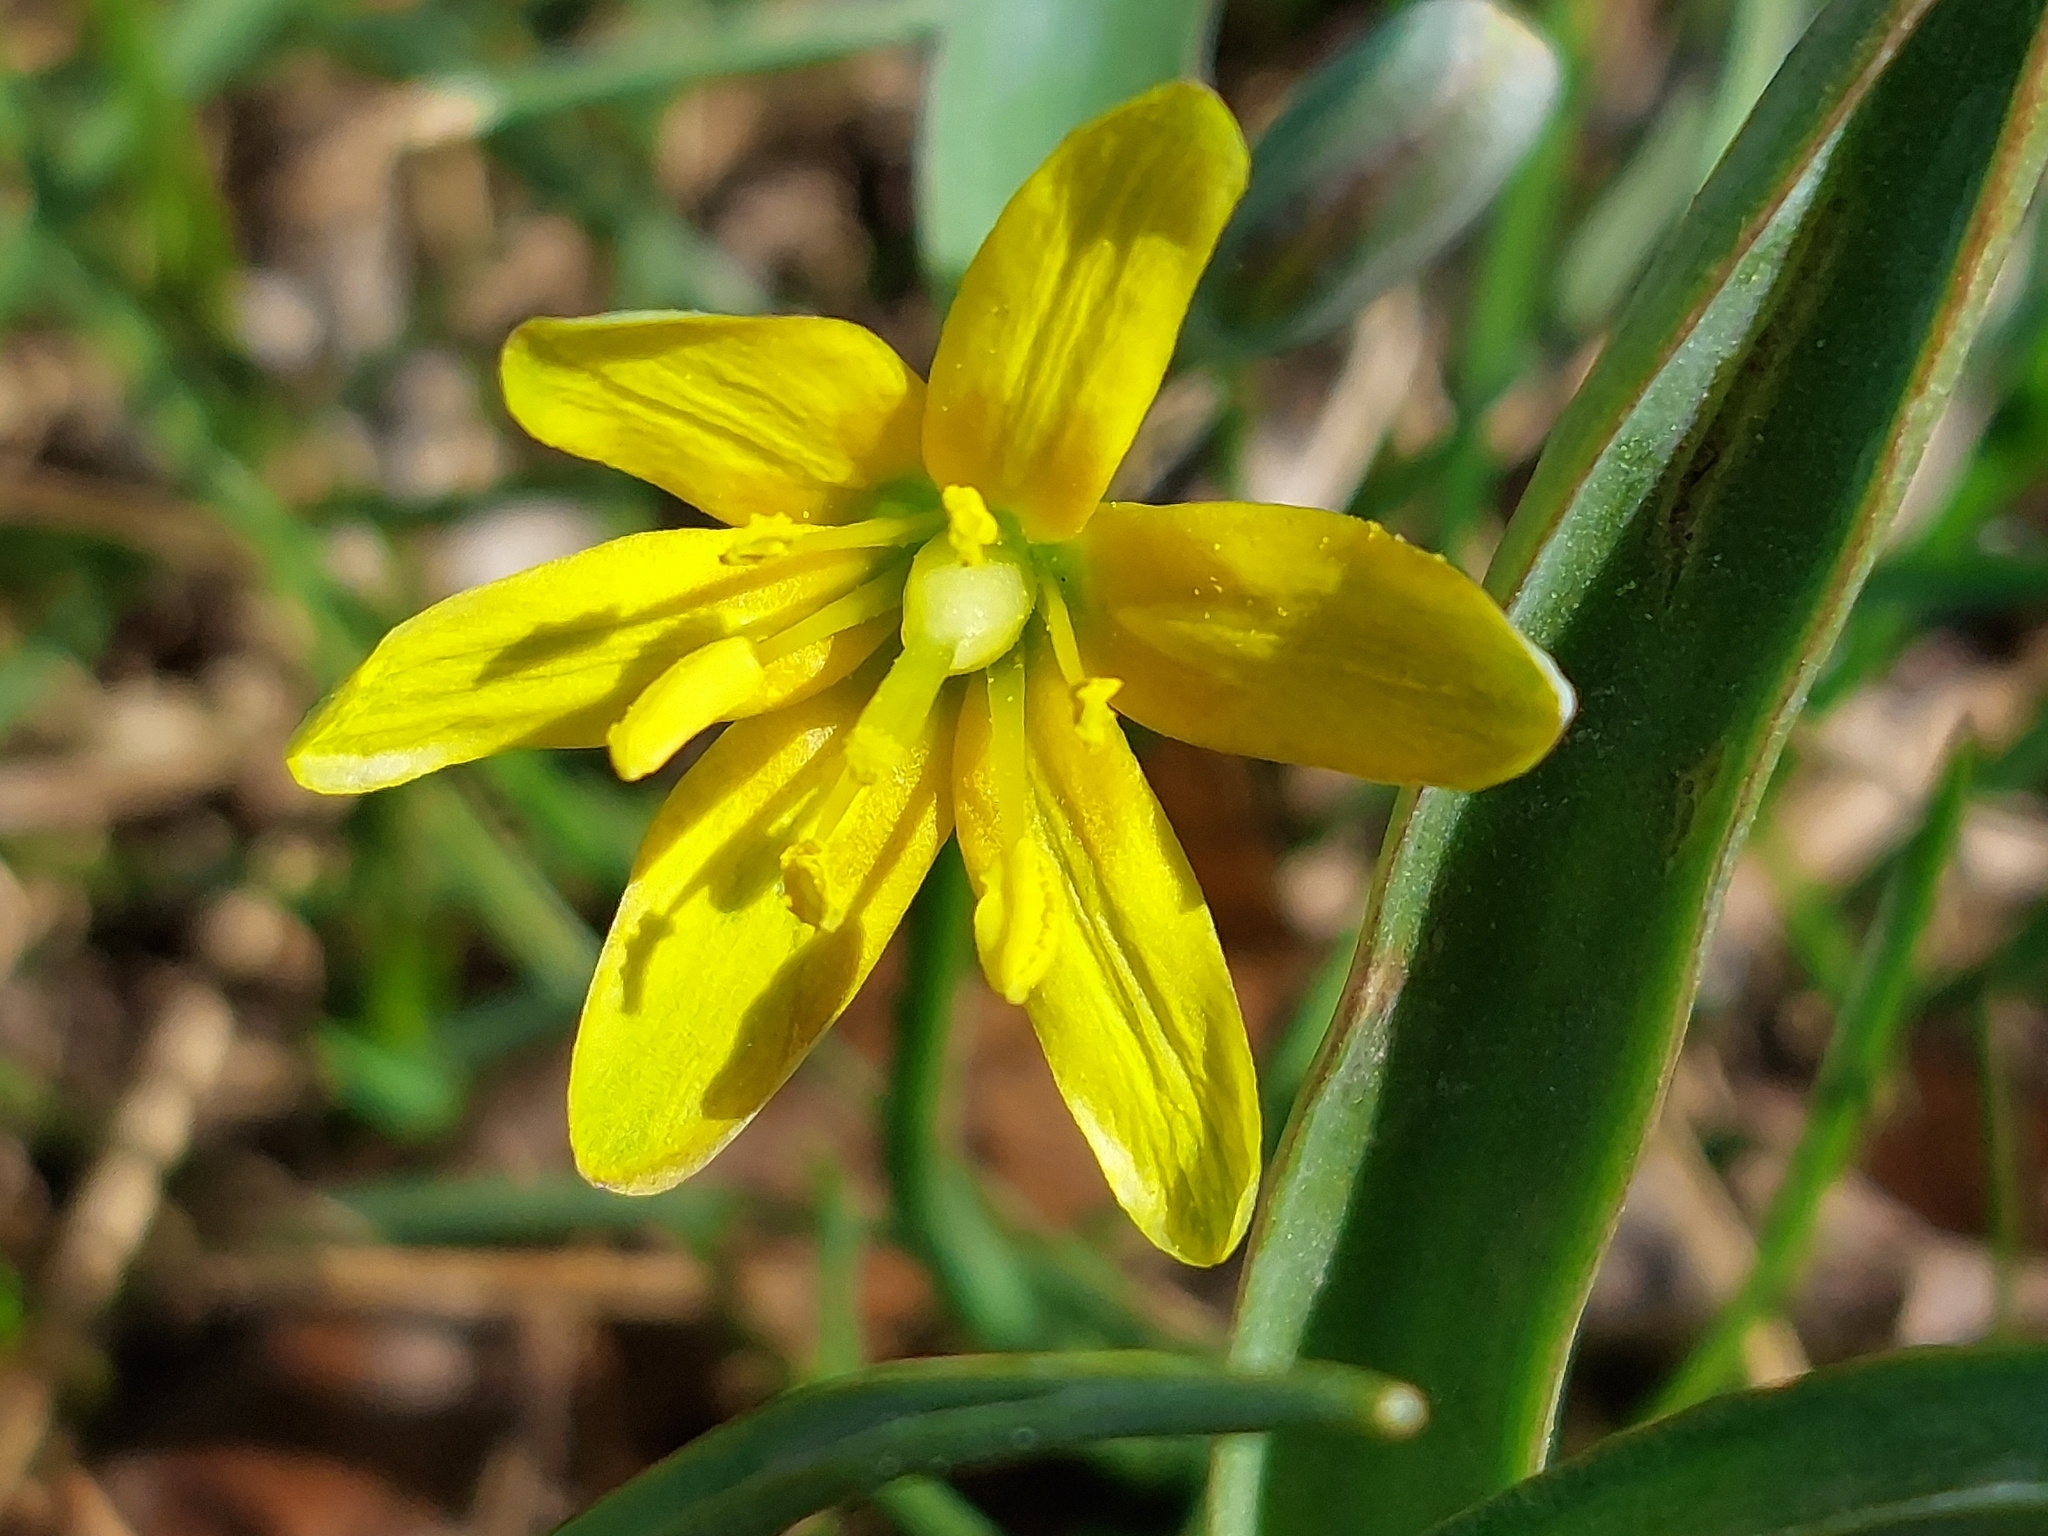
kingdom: Plantae
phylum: Tracheophyta
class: Liliopsida
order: Liliales
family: Liliaceae
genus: Gagea
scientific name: Gagea lutea
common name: Yellow star-of-bethlehem
